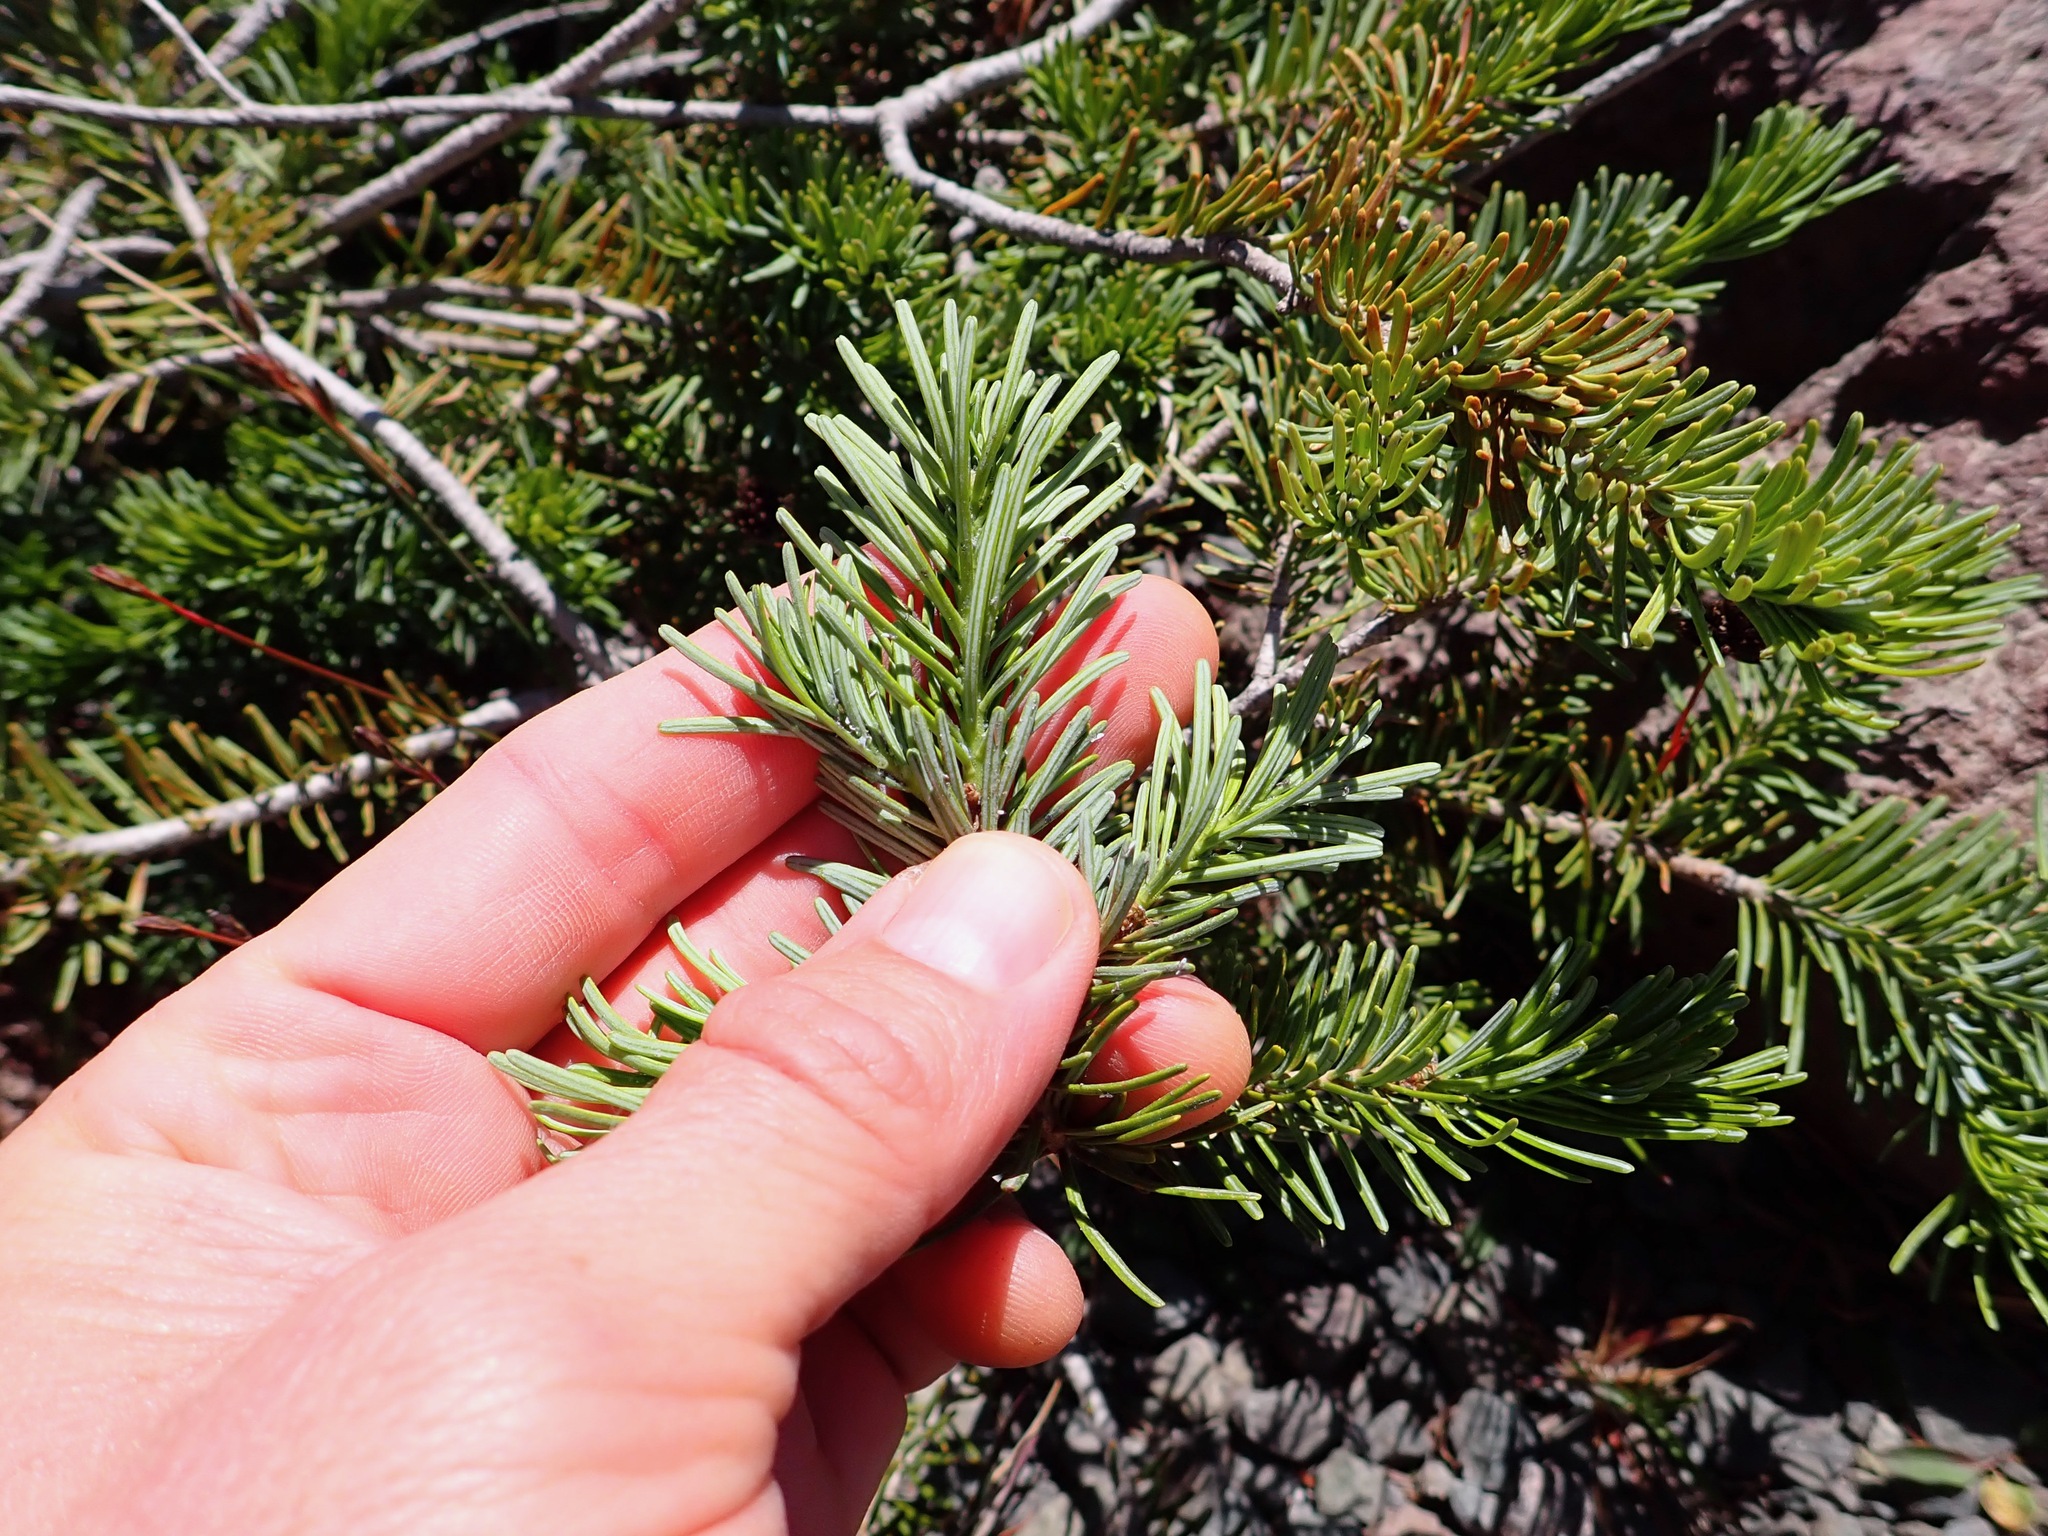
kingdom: Plantae
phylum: Tracheophyta
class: Pinopsida
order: Pinales
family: Pinaceae
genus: Abies
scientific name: Abies lasiocarpa
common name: Subalpine fir
